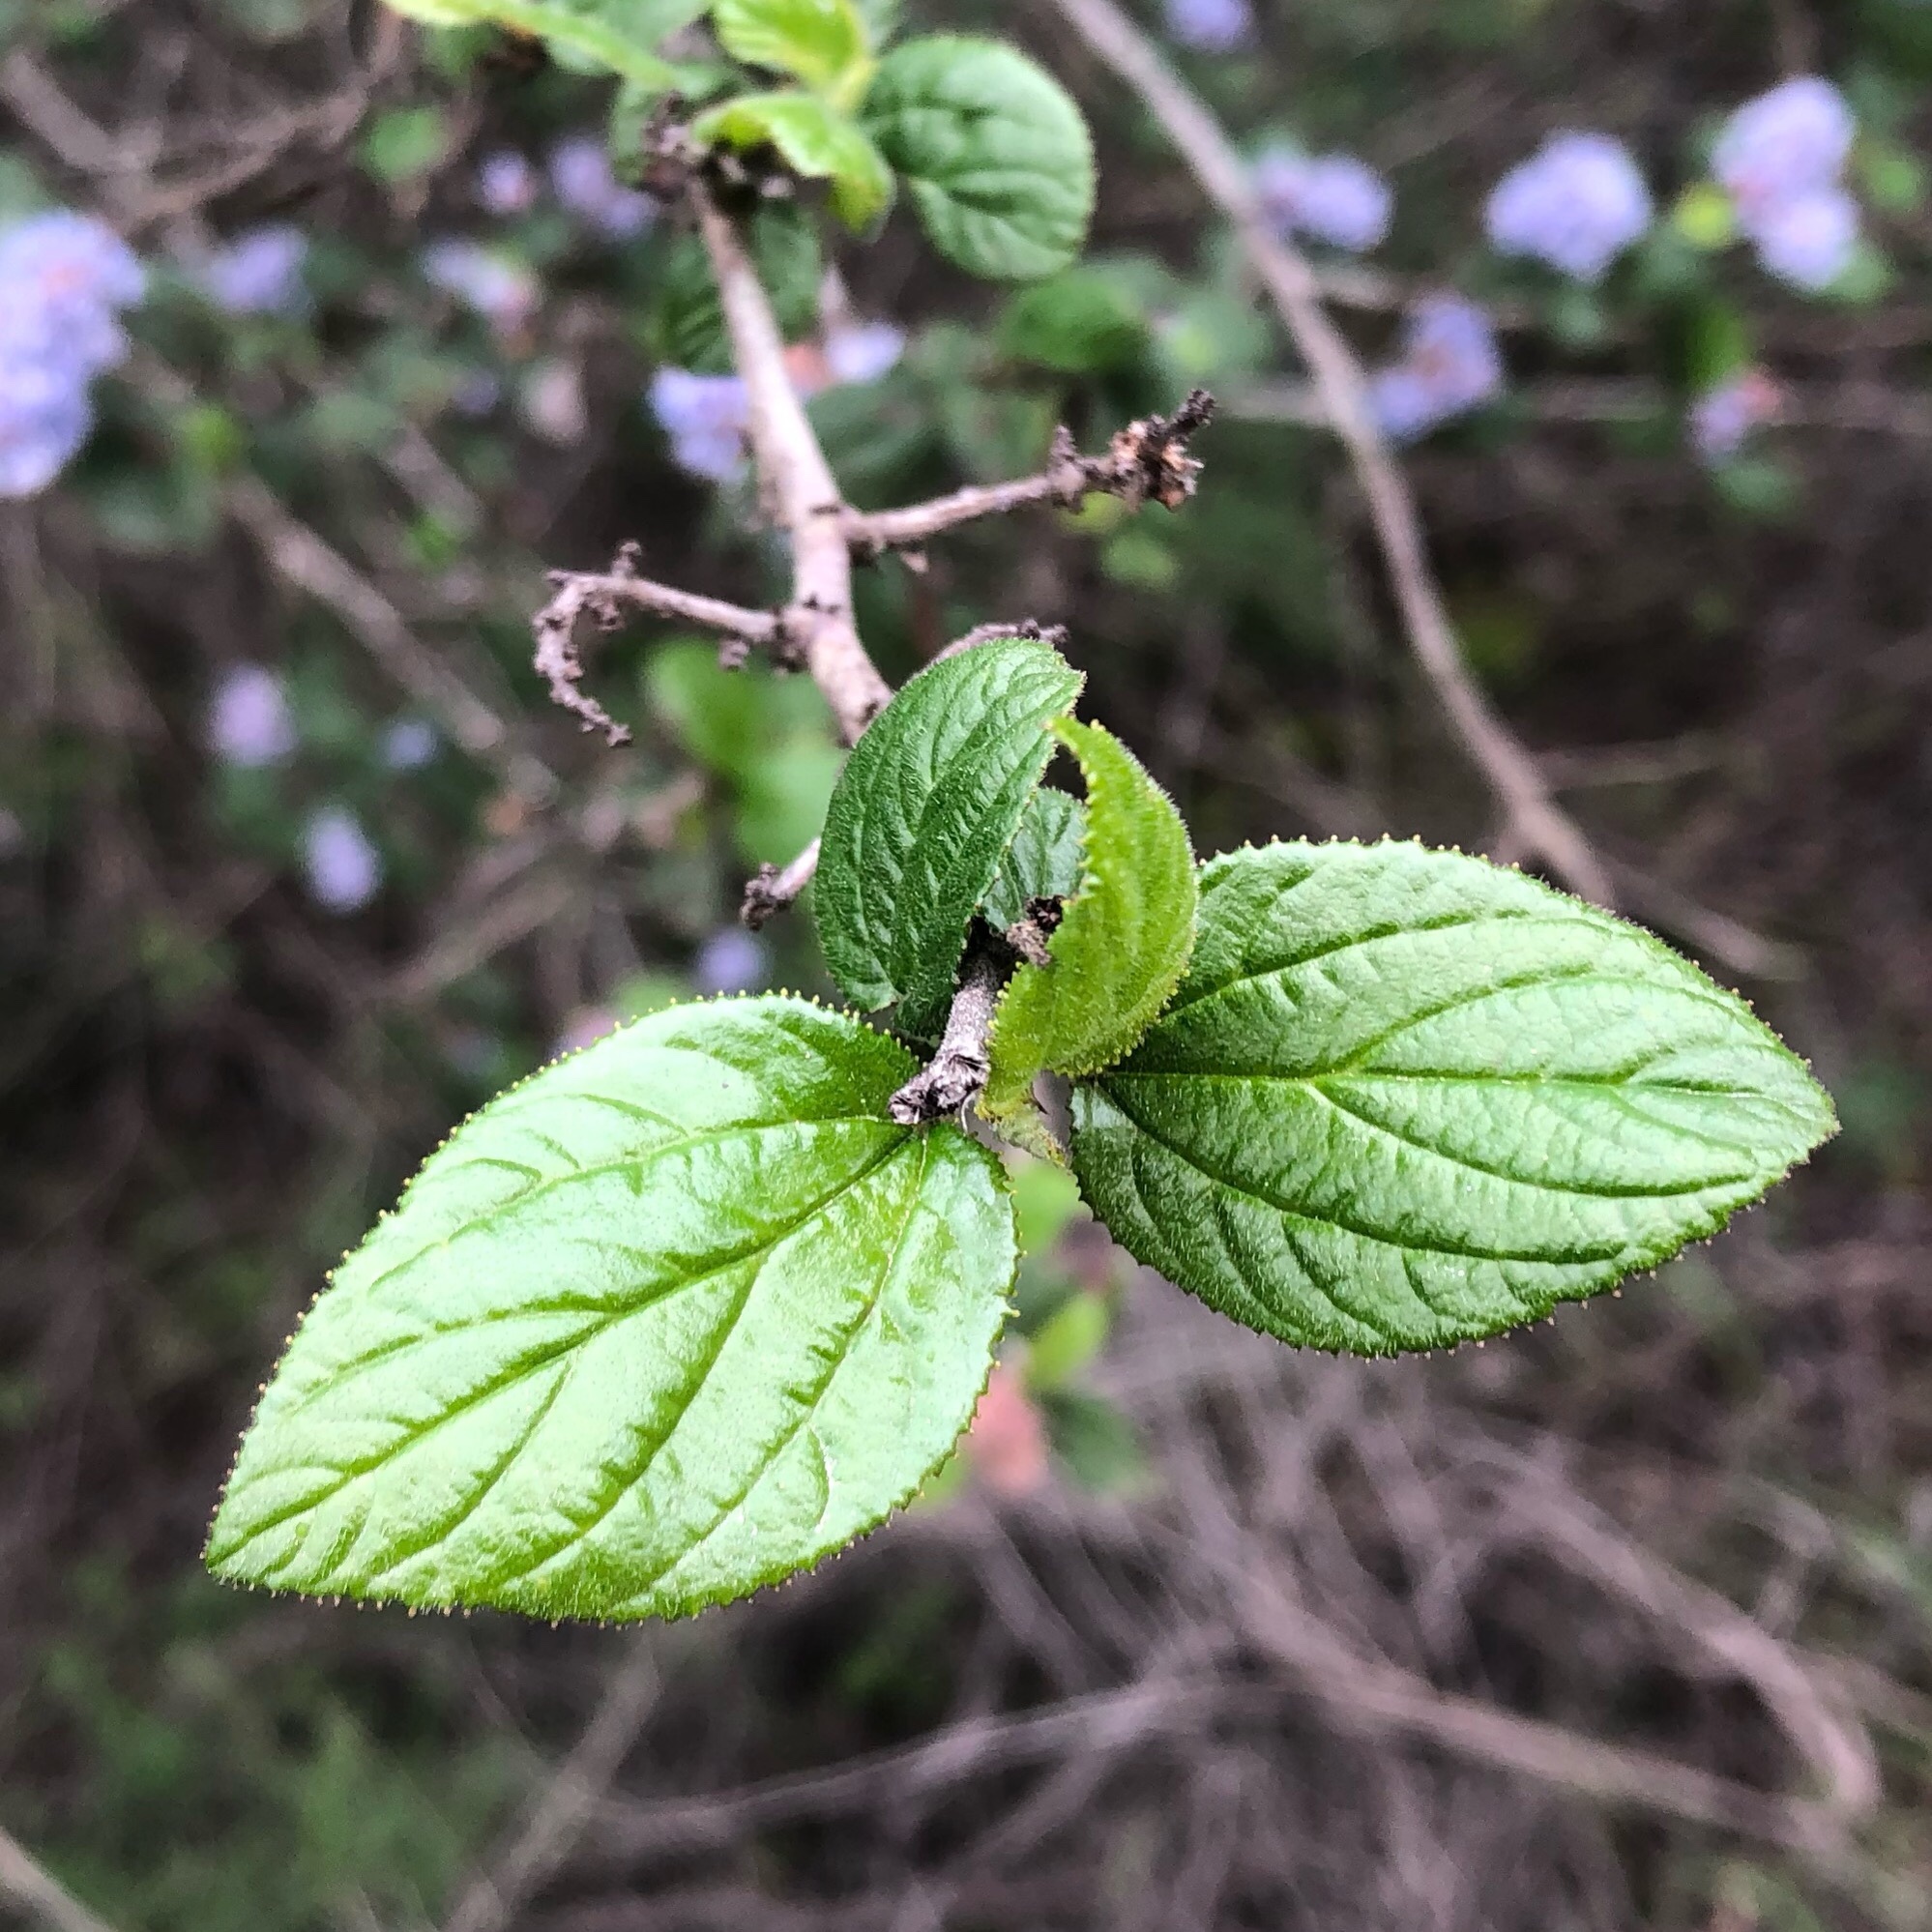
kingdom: Plantae
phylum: Tracheophyta
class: Magnoliopsida
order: Rosales
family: Rhamnaceae
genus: Ceanothus
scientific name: Ceanothus oliganthus
